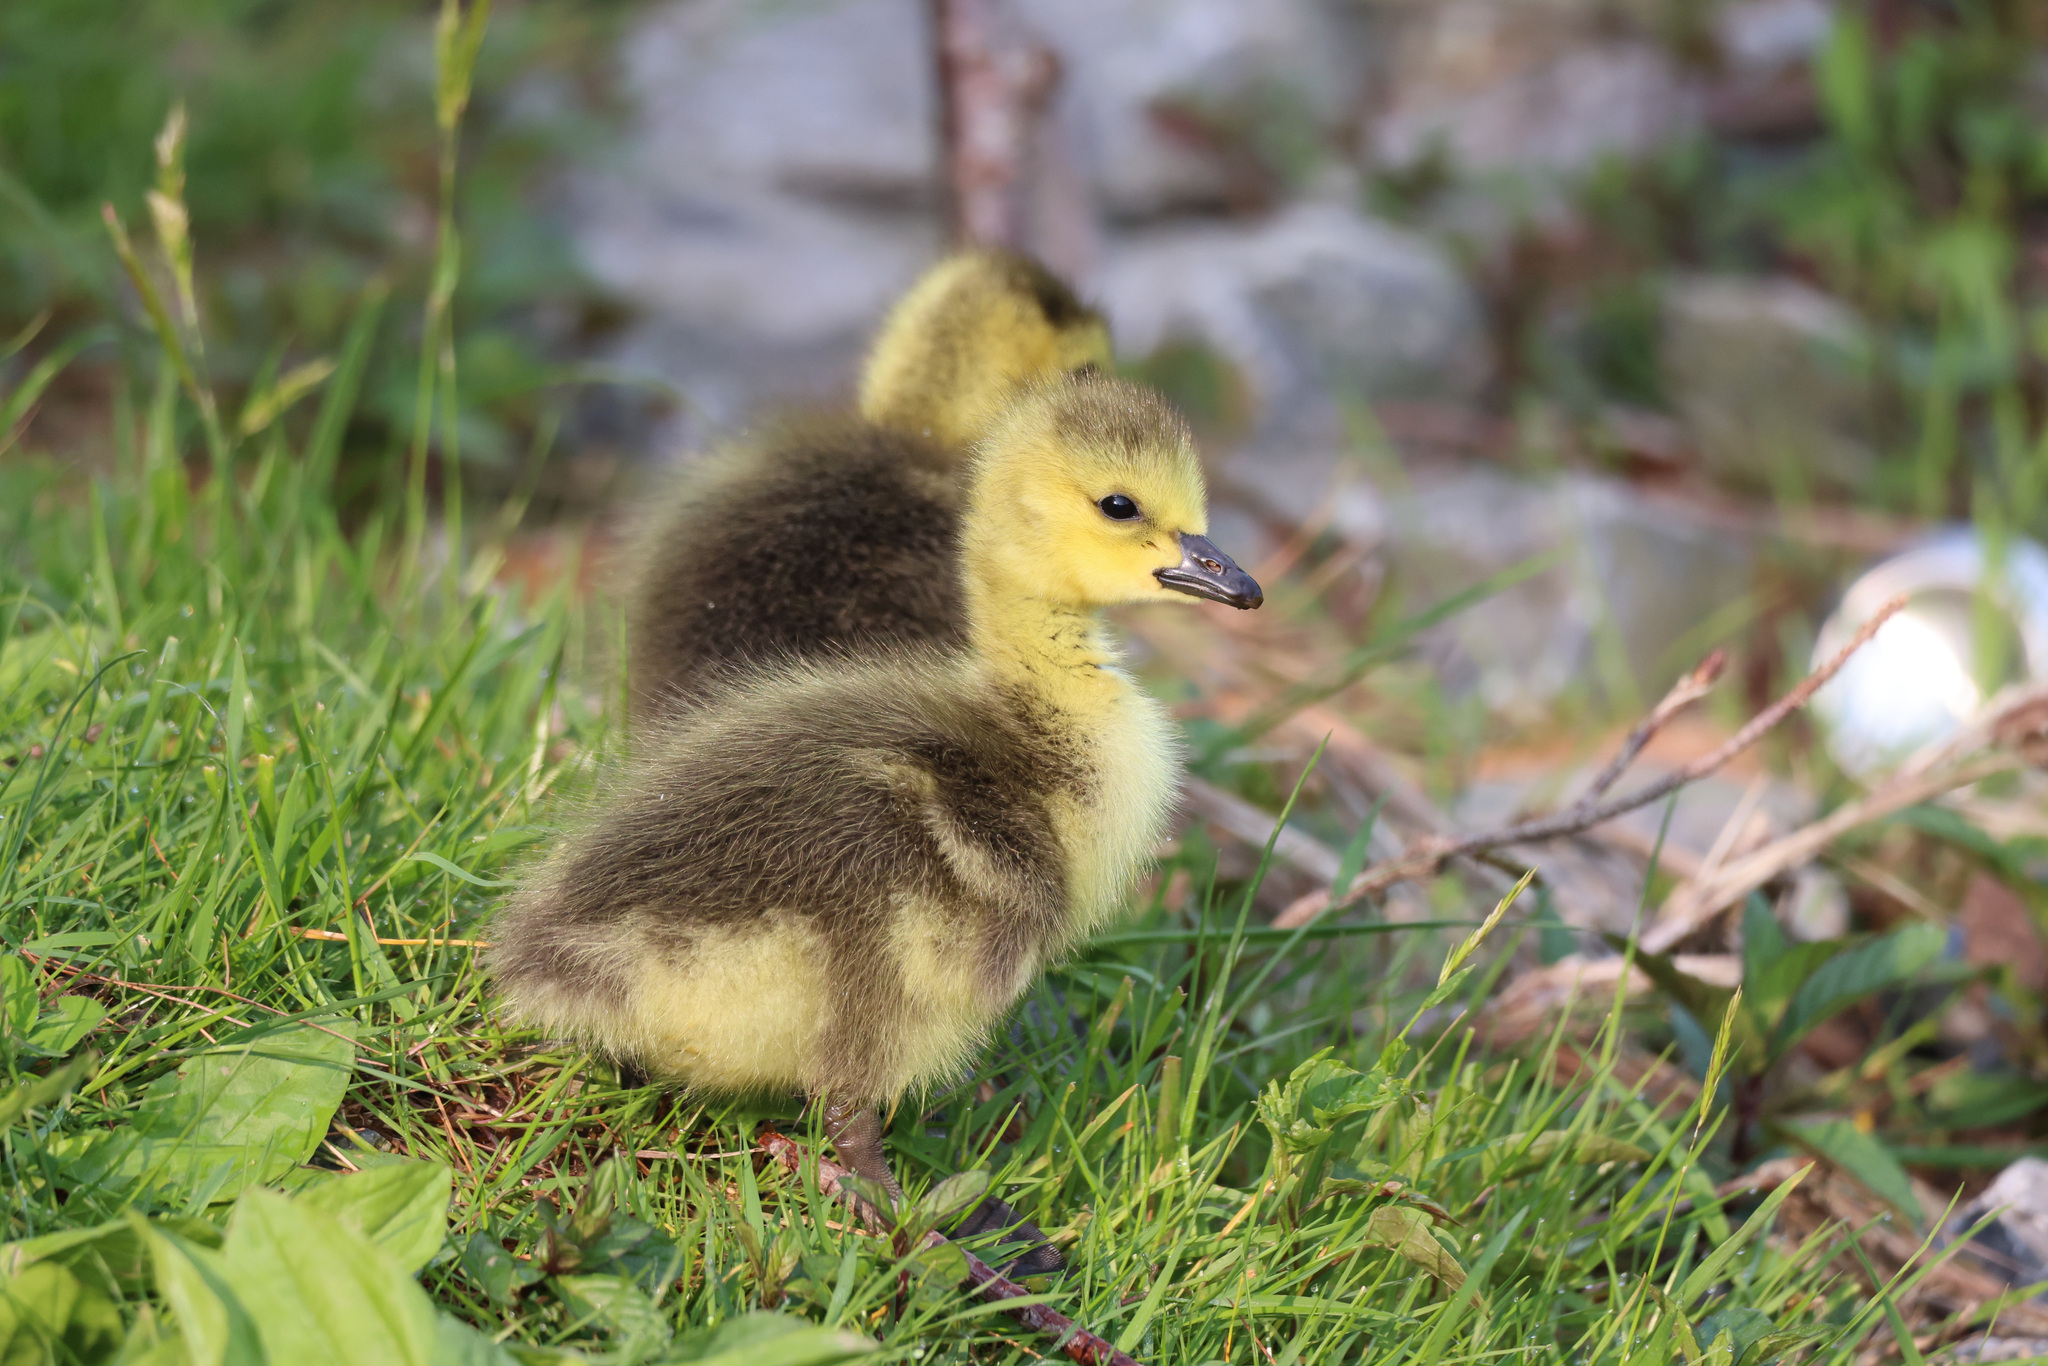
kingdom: Animalia
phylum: Chordata
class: Aves
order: Anseriformes
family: Anatidae
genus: Branta
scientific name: Branta canadensis
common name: Canada goose
